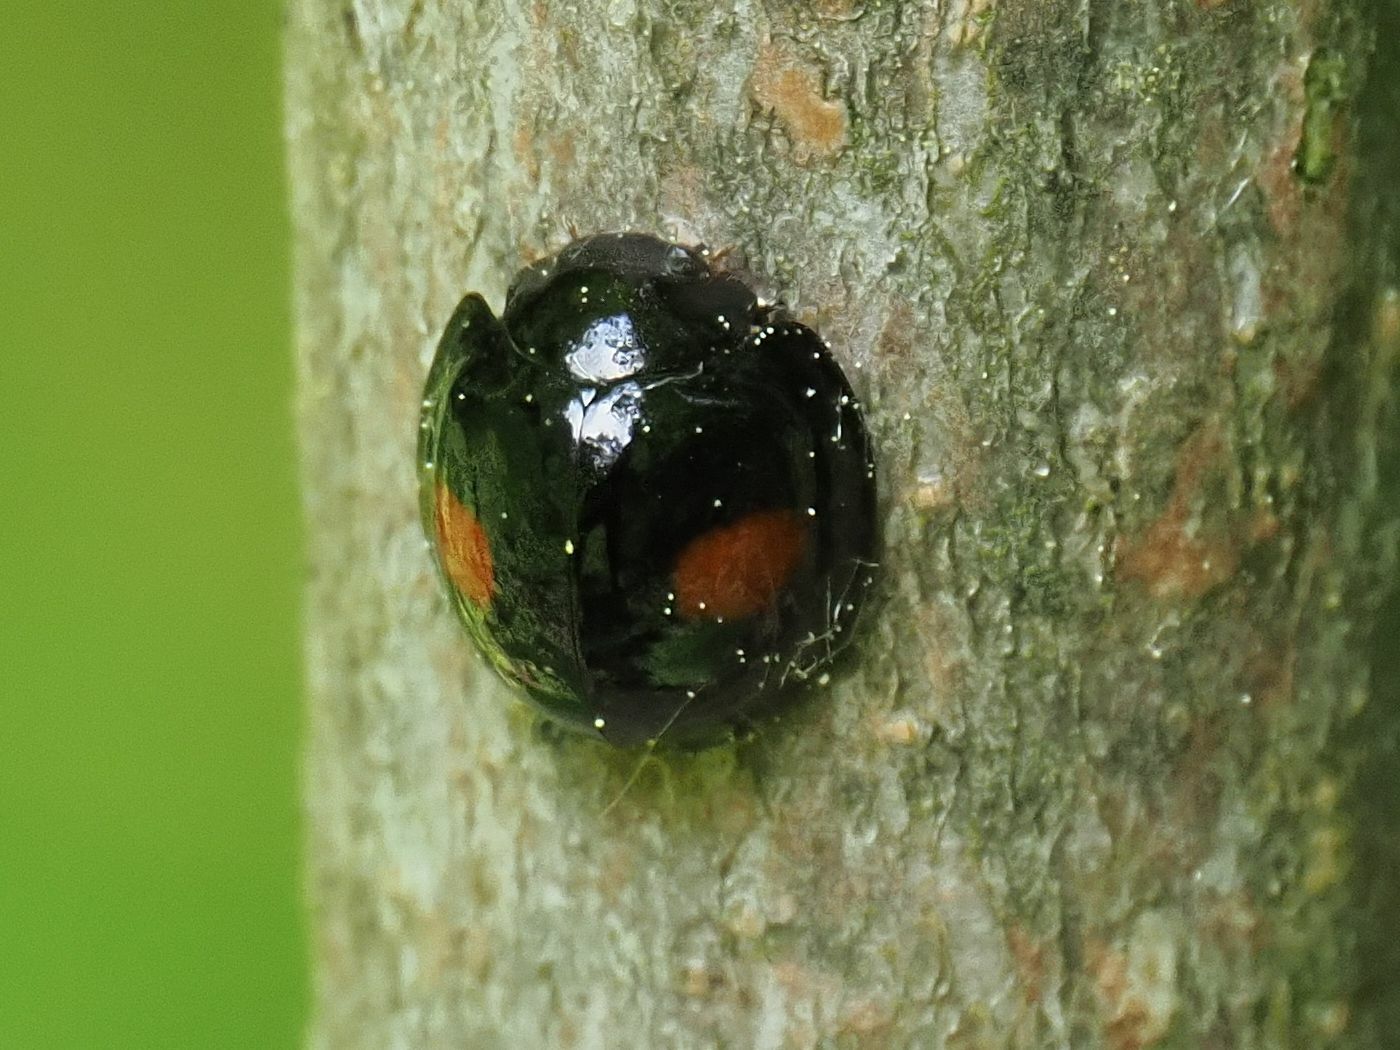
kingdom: Animalia
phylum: Arthropoda
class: Insecta
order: Coleoptera
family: Coccinellidae
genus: Chilocorus
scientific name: Chilocorus renipustulatus
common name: Kidney-spot ladybird
